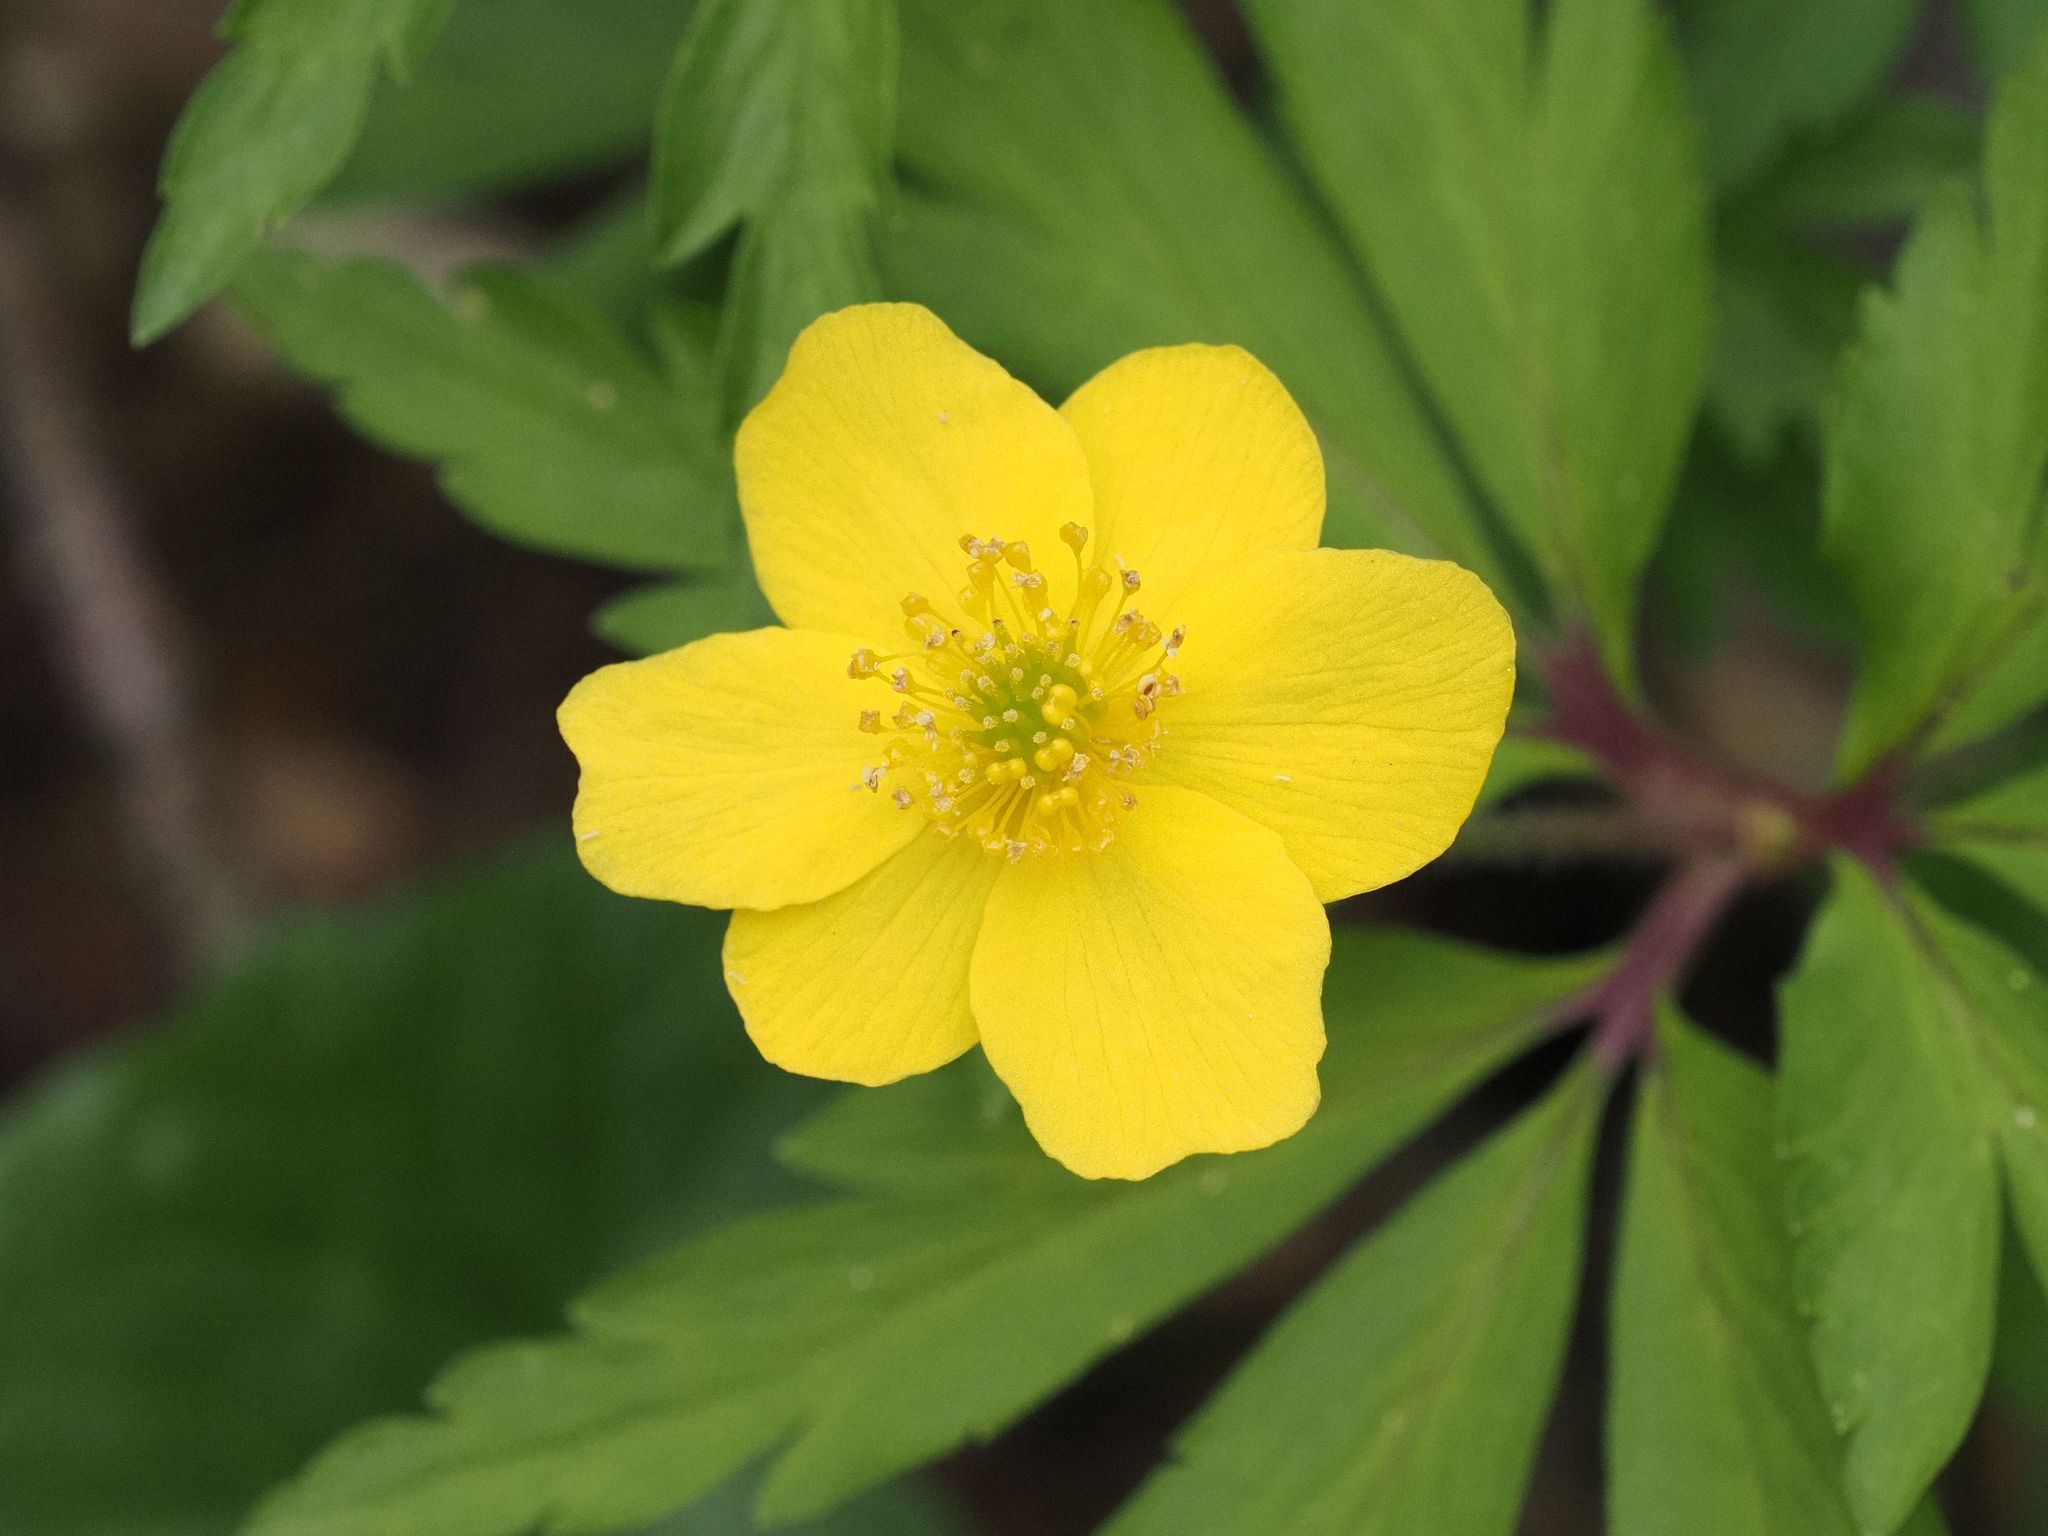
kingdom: Plantae
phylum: Tracheophyta
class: Magnoliopsida
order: Ranunculales
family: Ranunculaceae
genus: Anemone
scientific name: Anemone ranunculoides
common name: Yellow anemone
